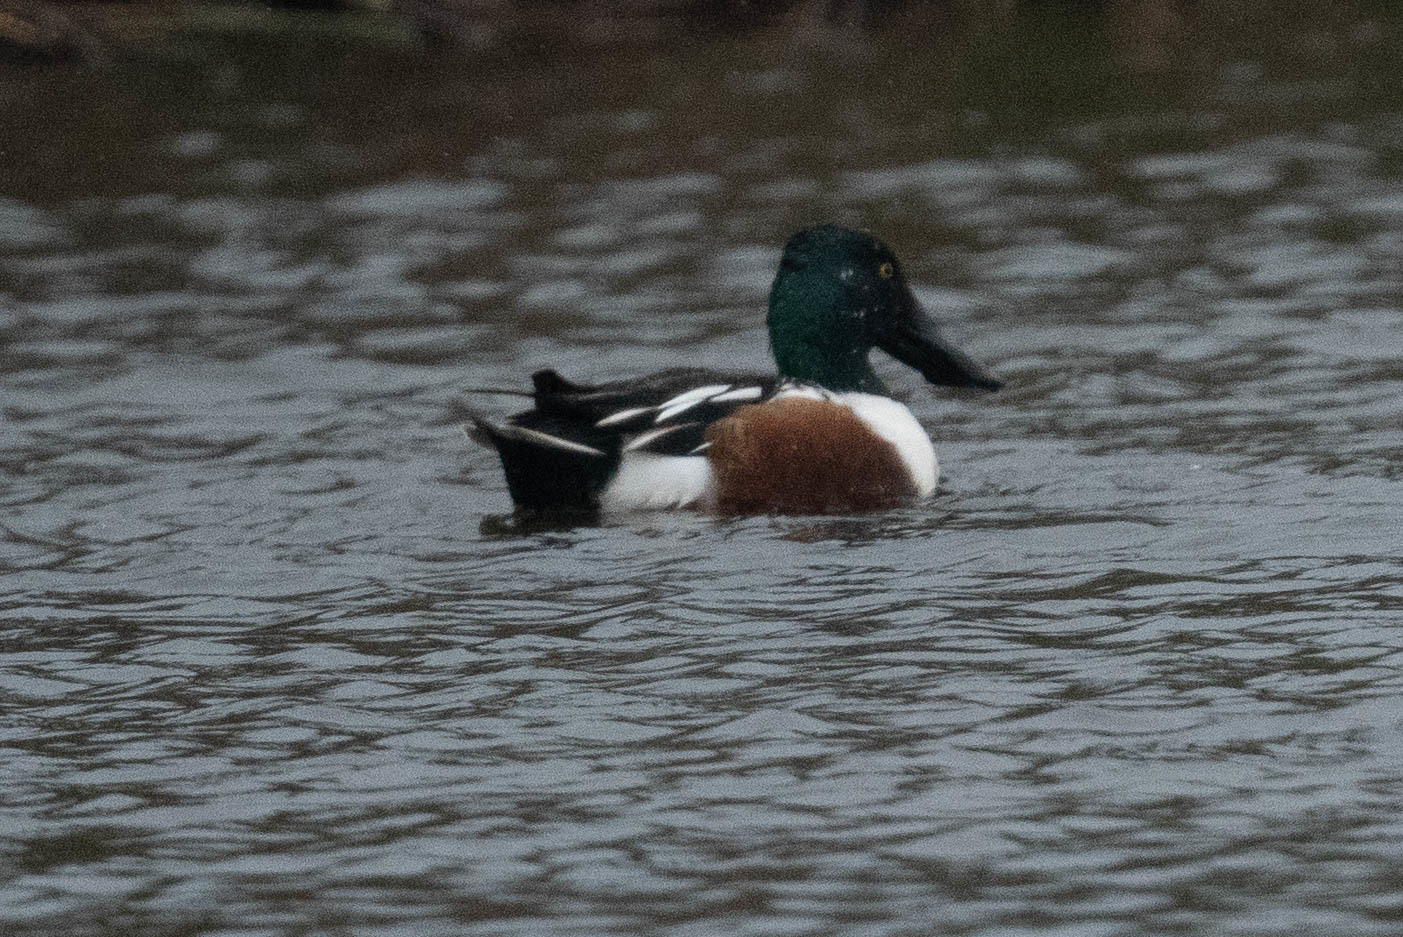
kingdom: Animalia
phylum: Chordata
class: Aves
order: Anseriformes
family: Anatidae
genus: Spatula
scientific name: Spatula clypeata
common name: Northern shoveler
